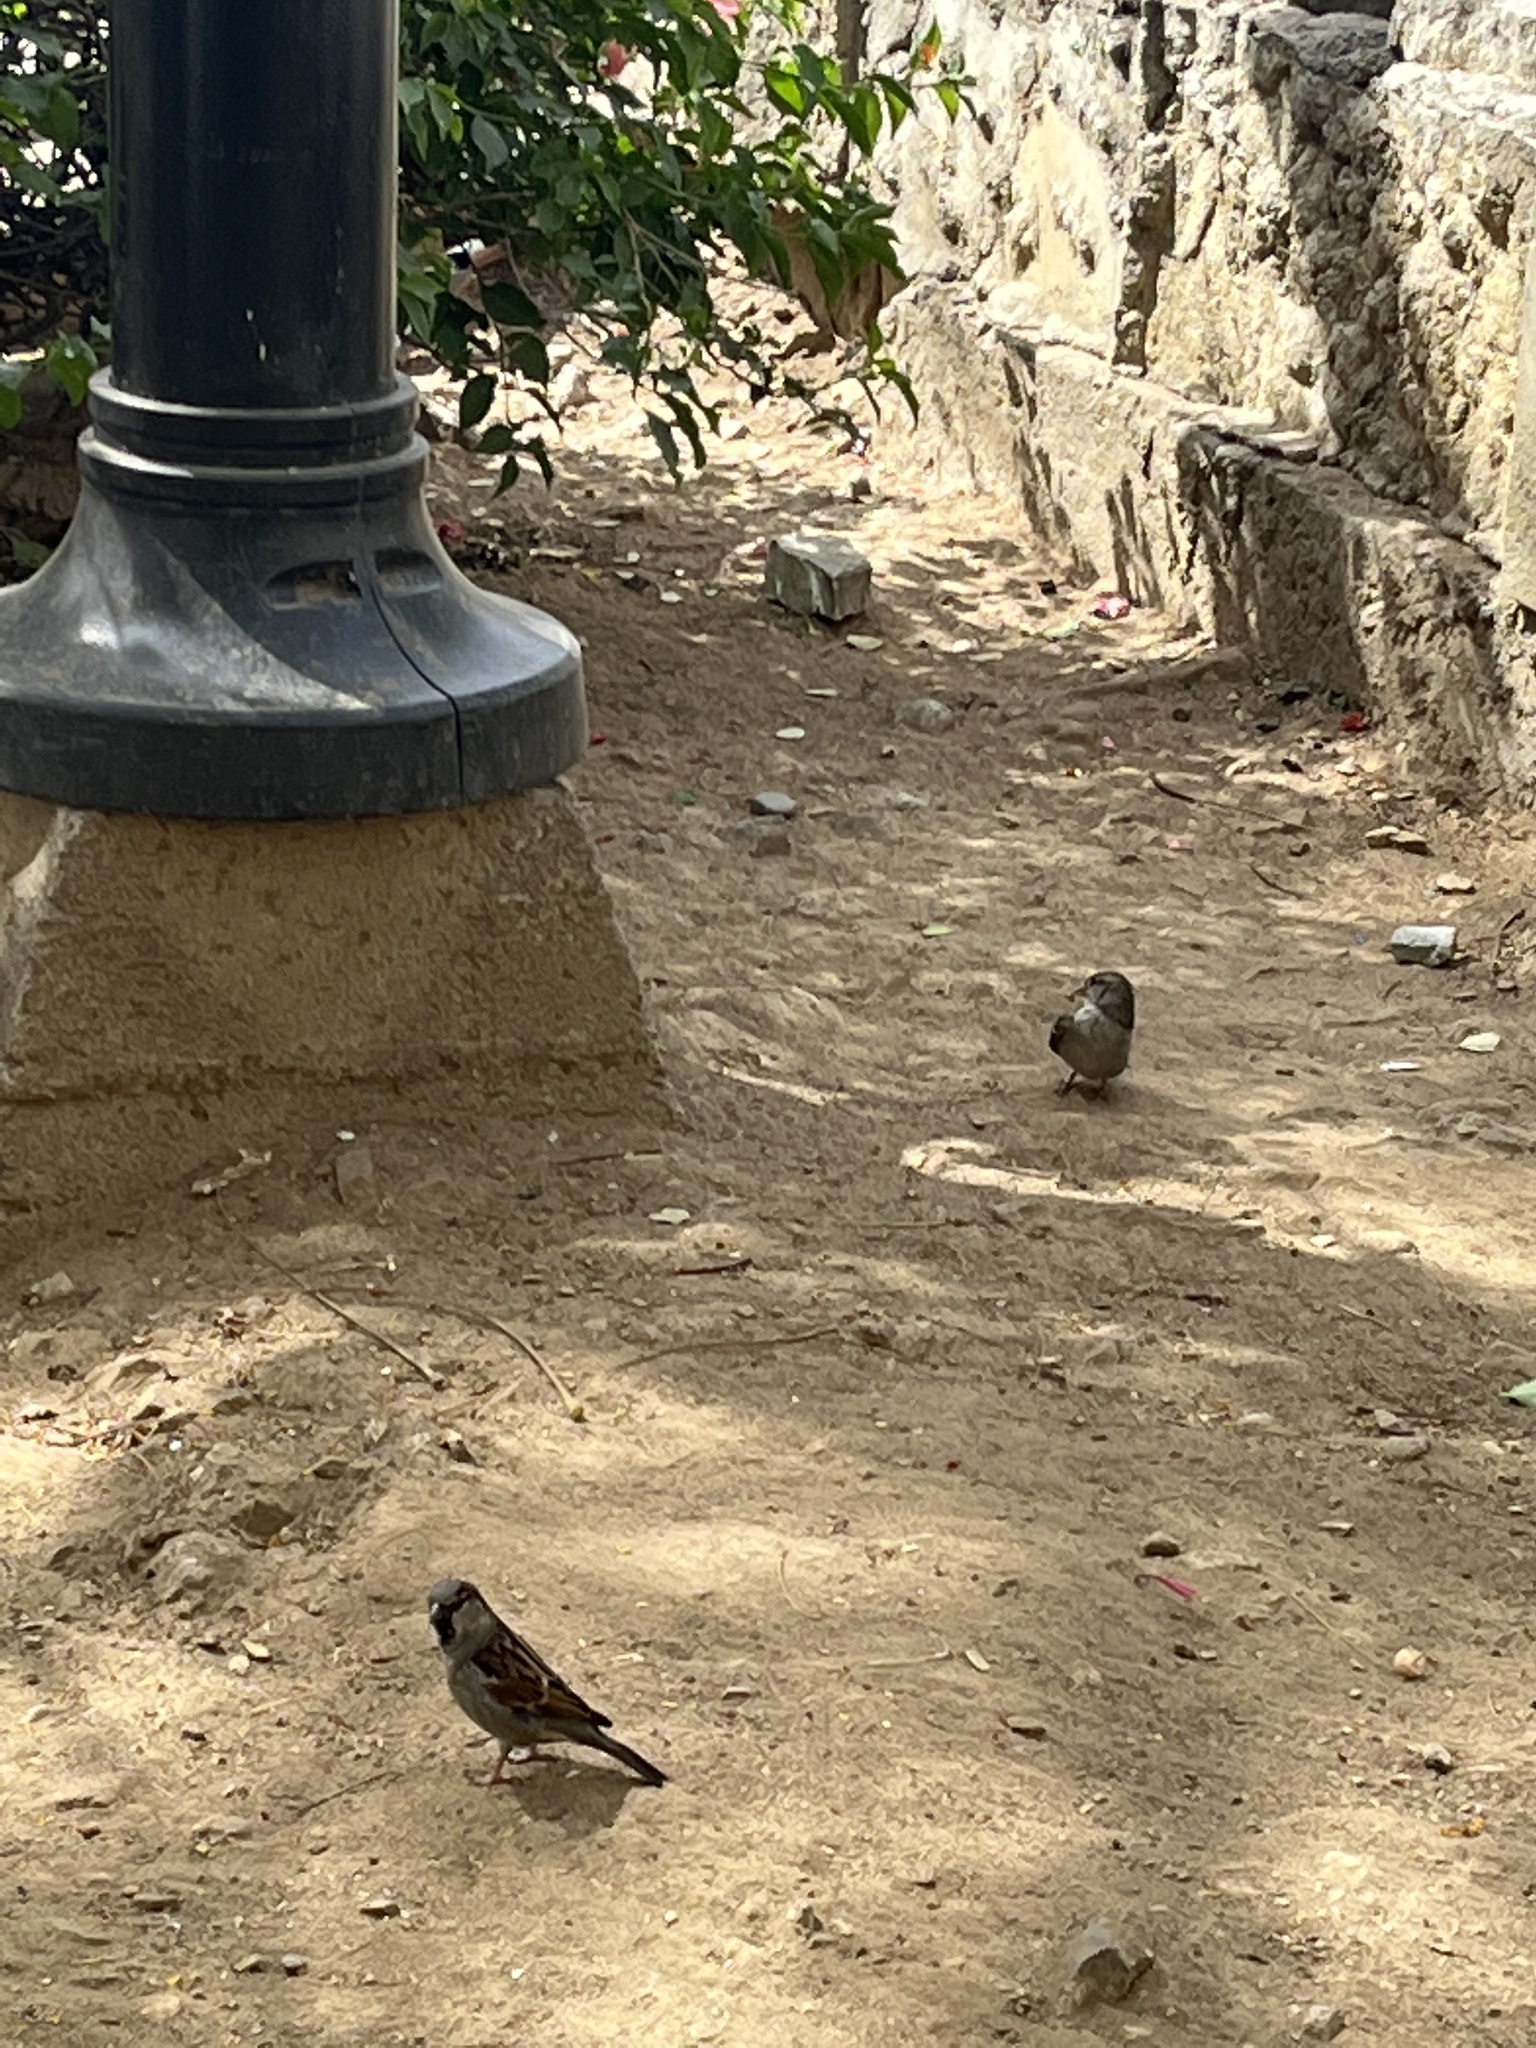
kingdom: Animalia
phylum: Chordata
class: Aves
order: Passeriformes
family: Passeridae
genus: Passer
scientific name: Passer domesticus
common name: House sparrow
